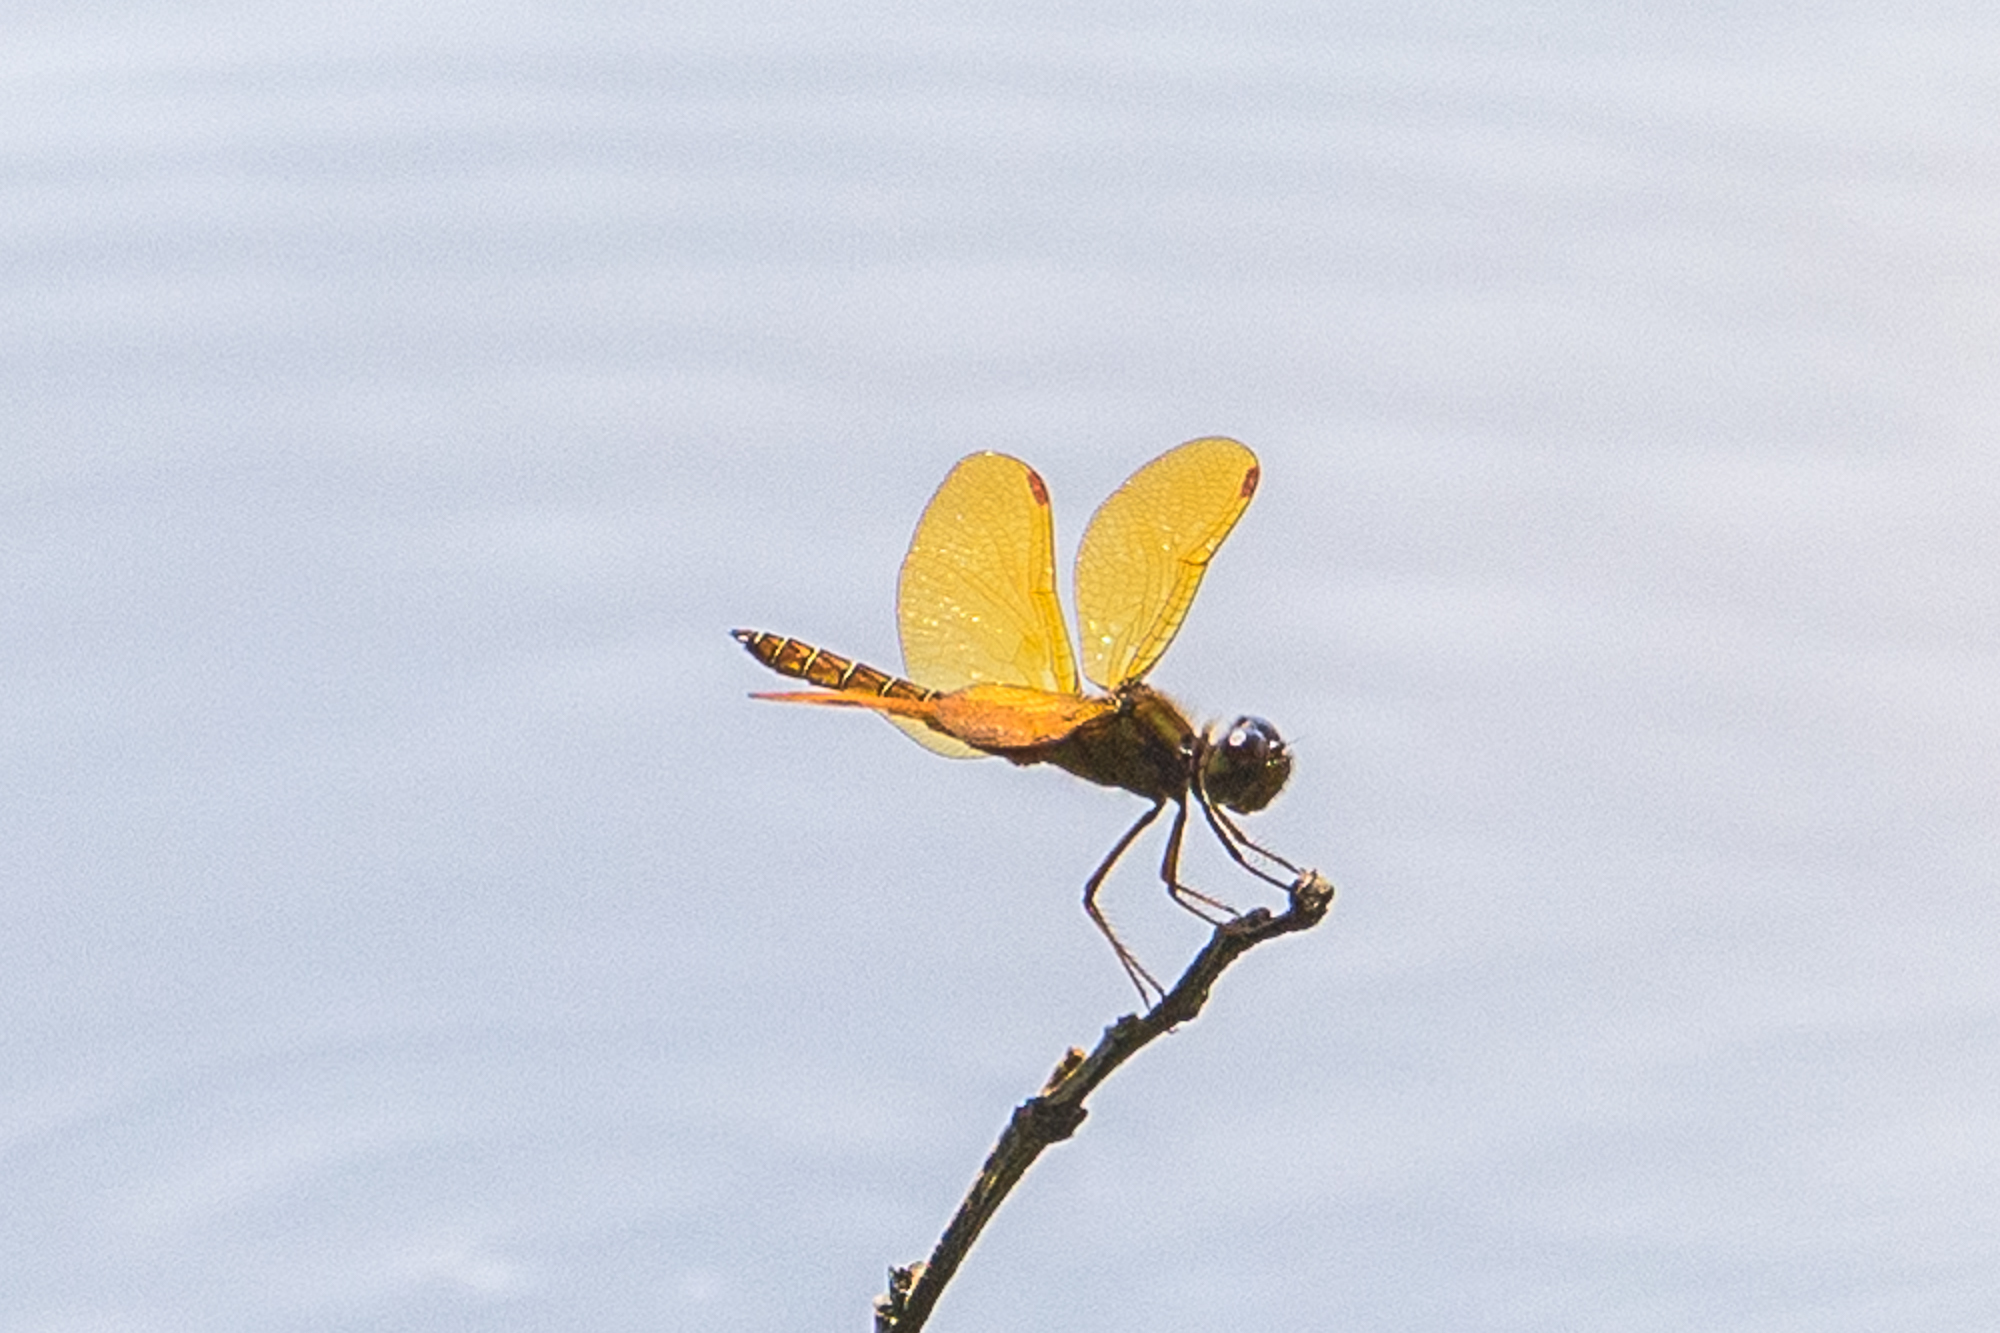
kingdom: Animalia
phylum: Arthropoda
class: Insecta
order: Odonata
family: Libellulidae
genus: Perithemis
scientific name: Perithemis tenera
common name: Eastern amberwing
